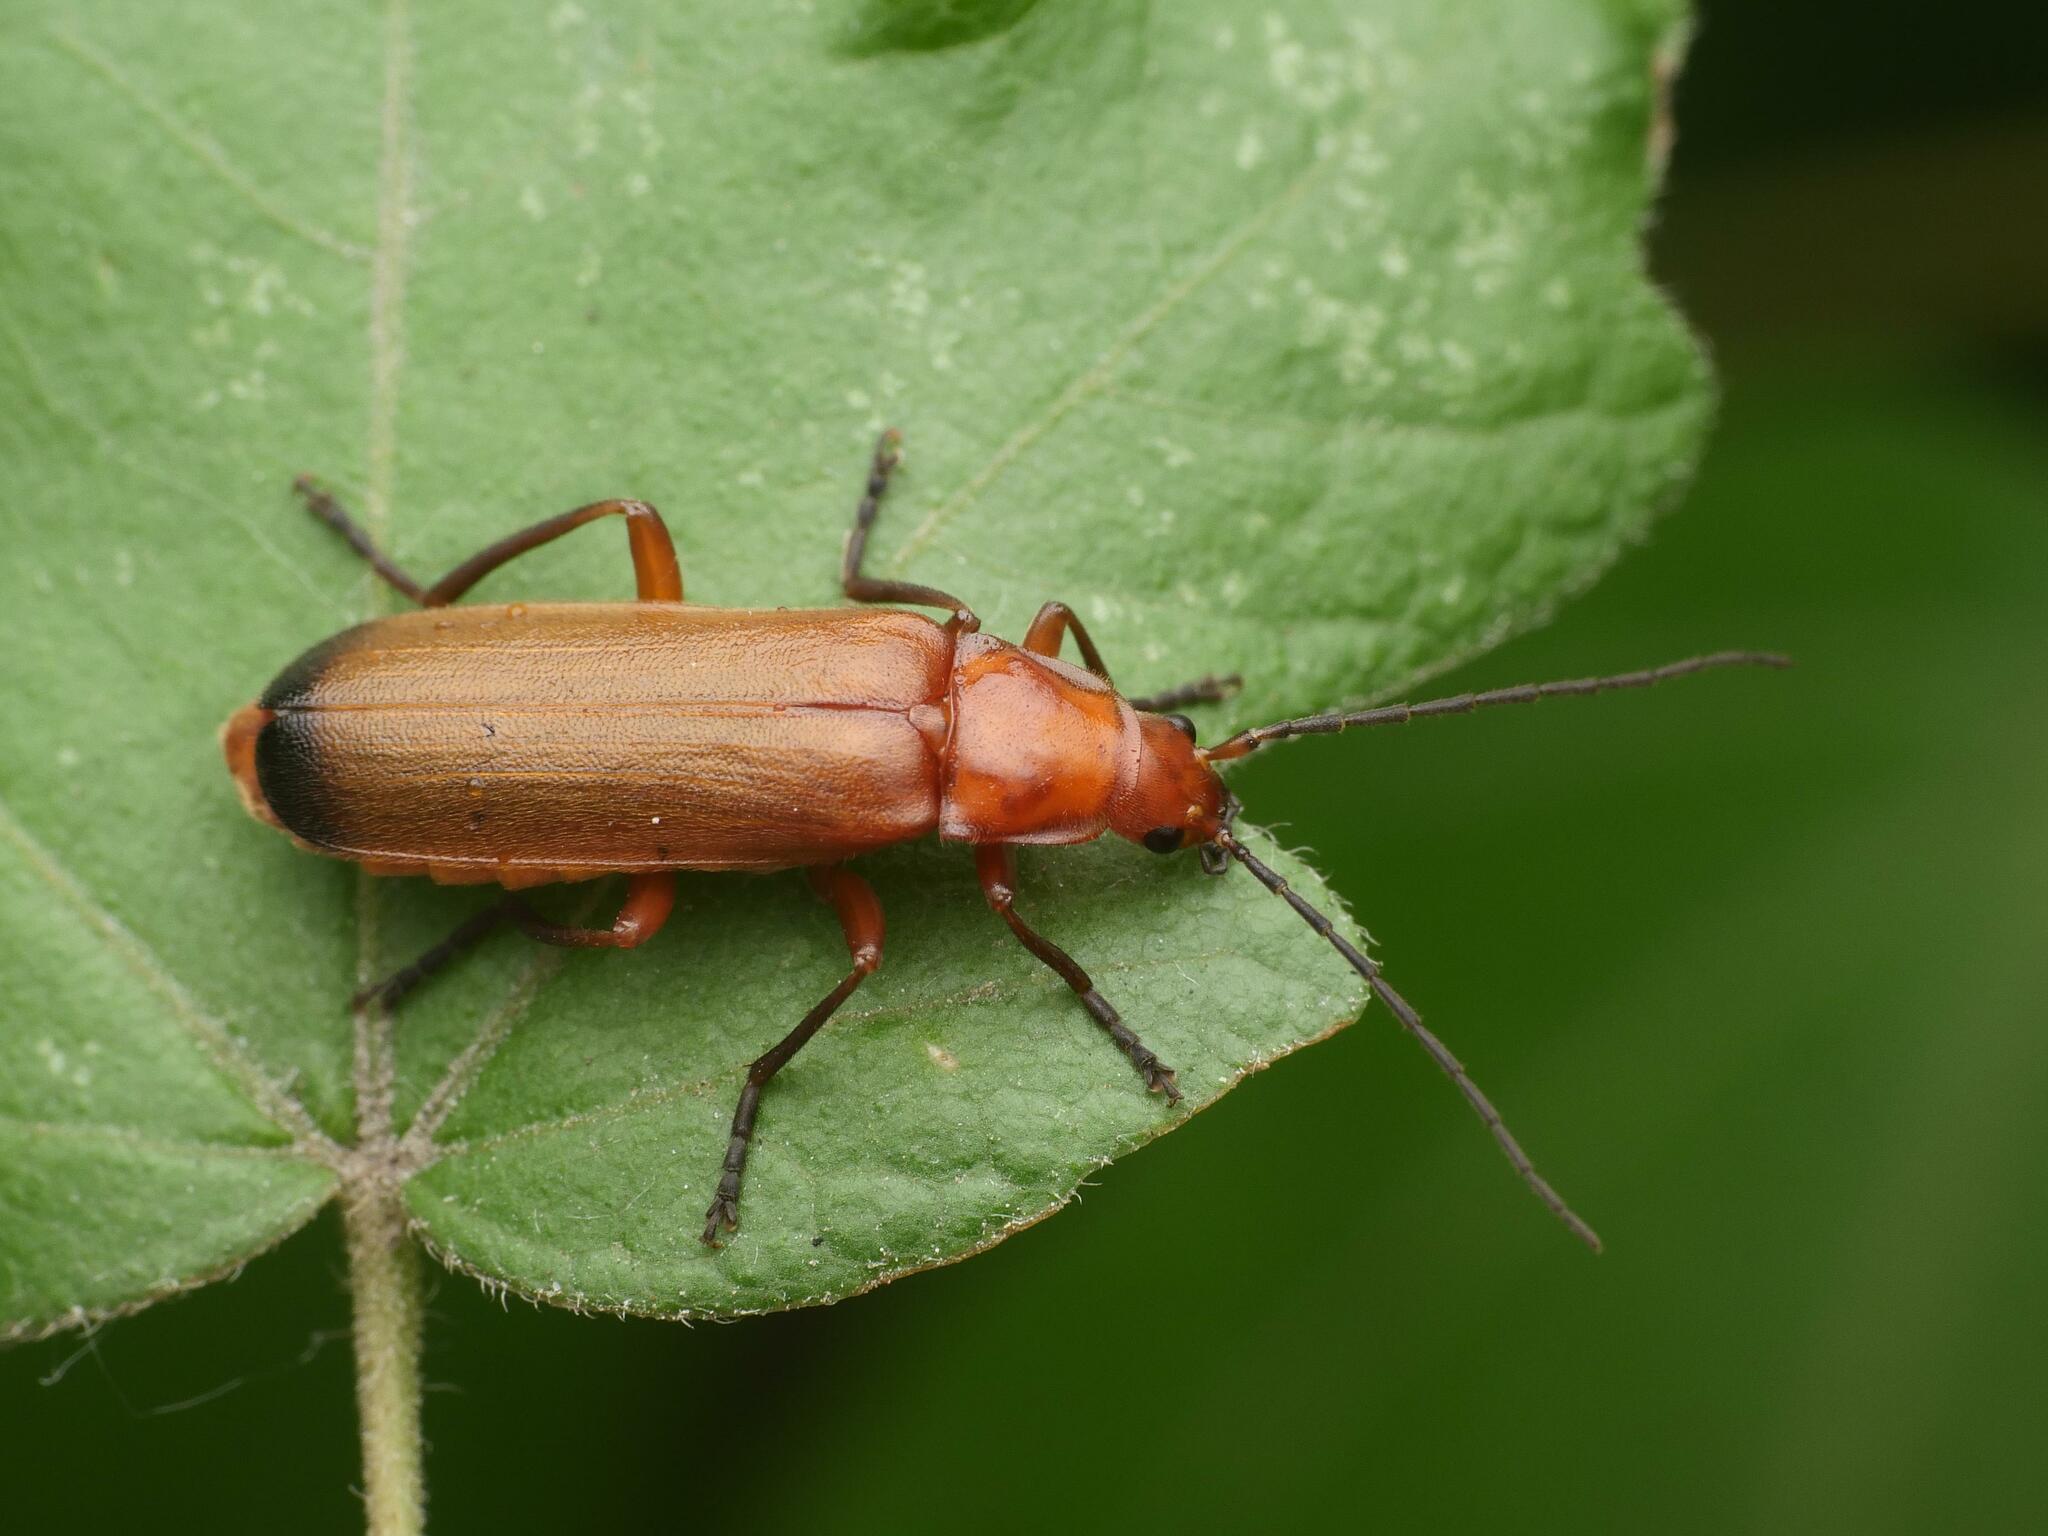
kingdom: Animalia
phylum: Arthropoda
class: Insecta
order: Coleoptera
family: Cantharidae
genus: Rhagonycha
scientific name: Rhagonycha fulva
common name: Common red soldier beetle
